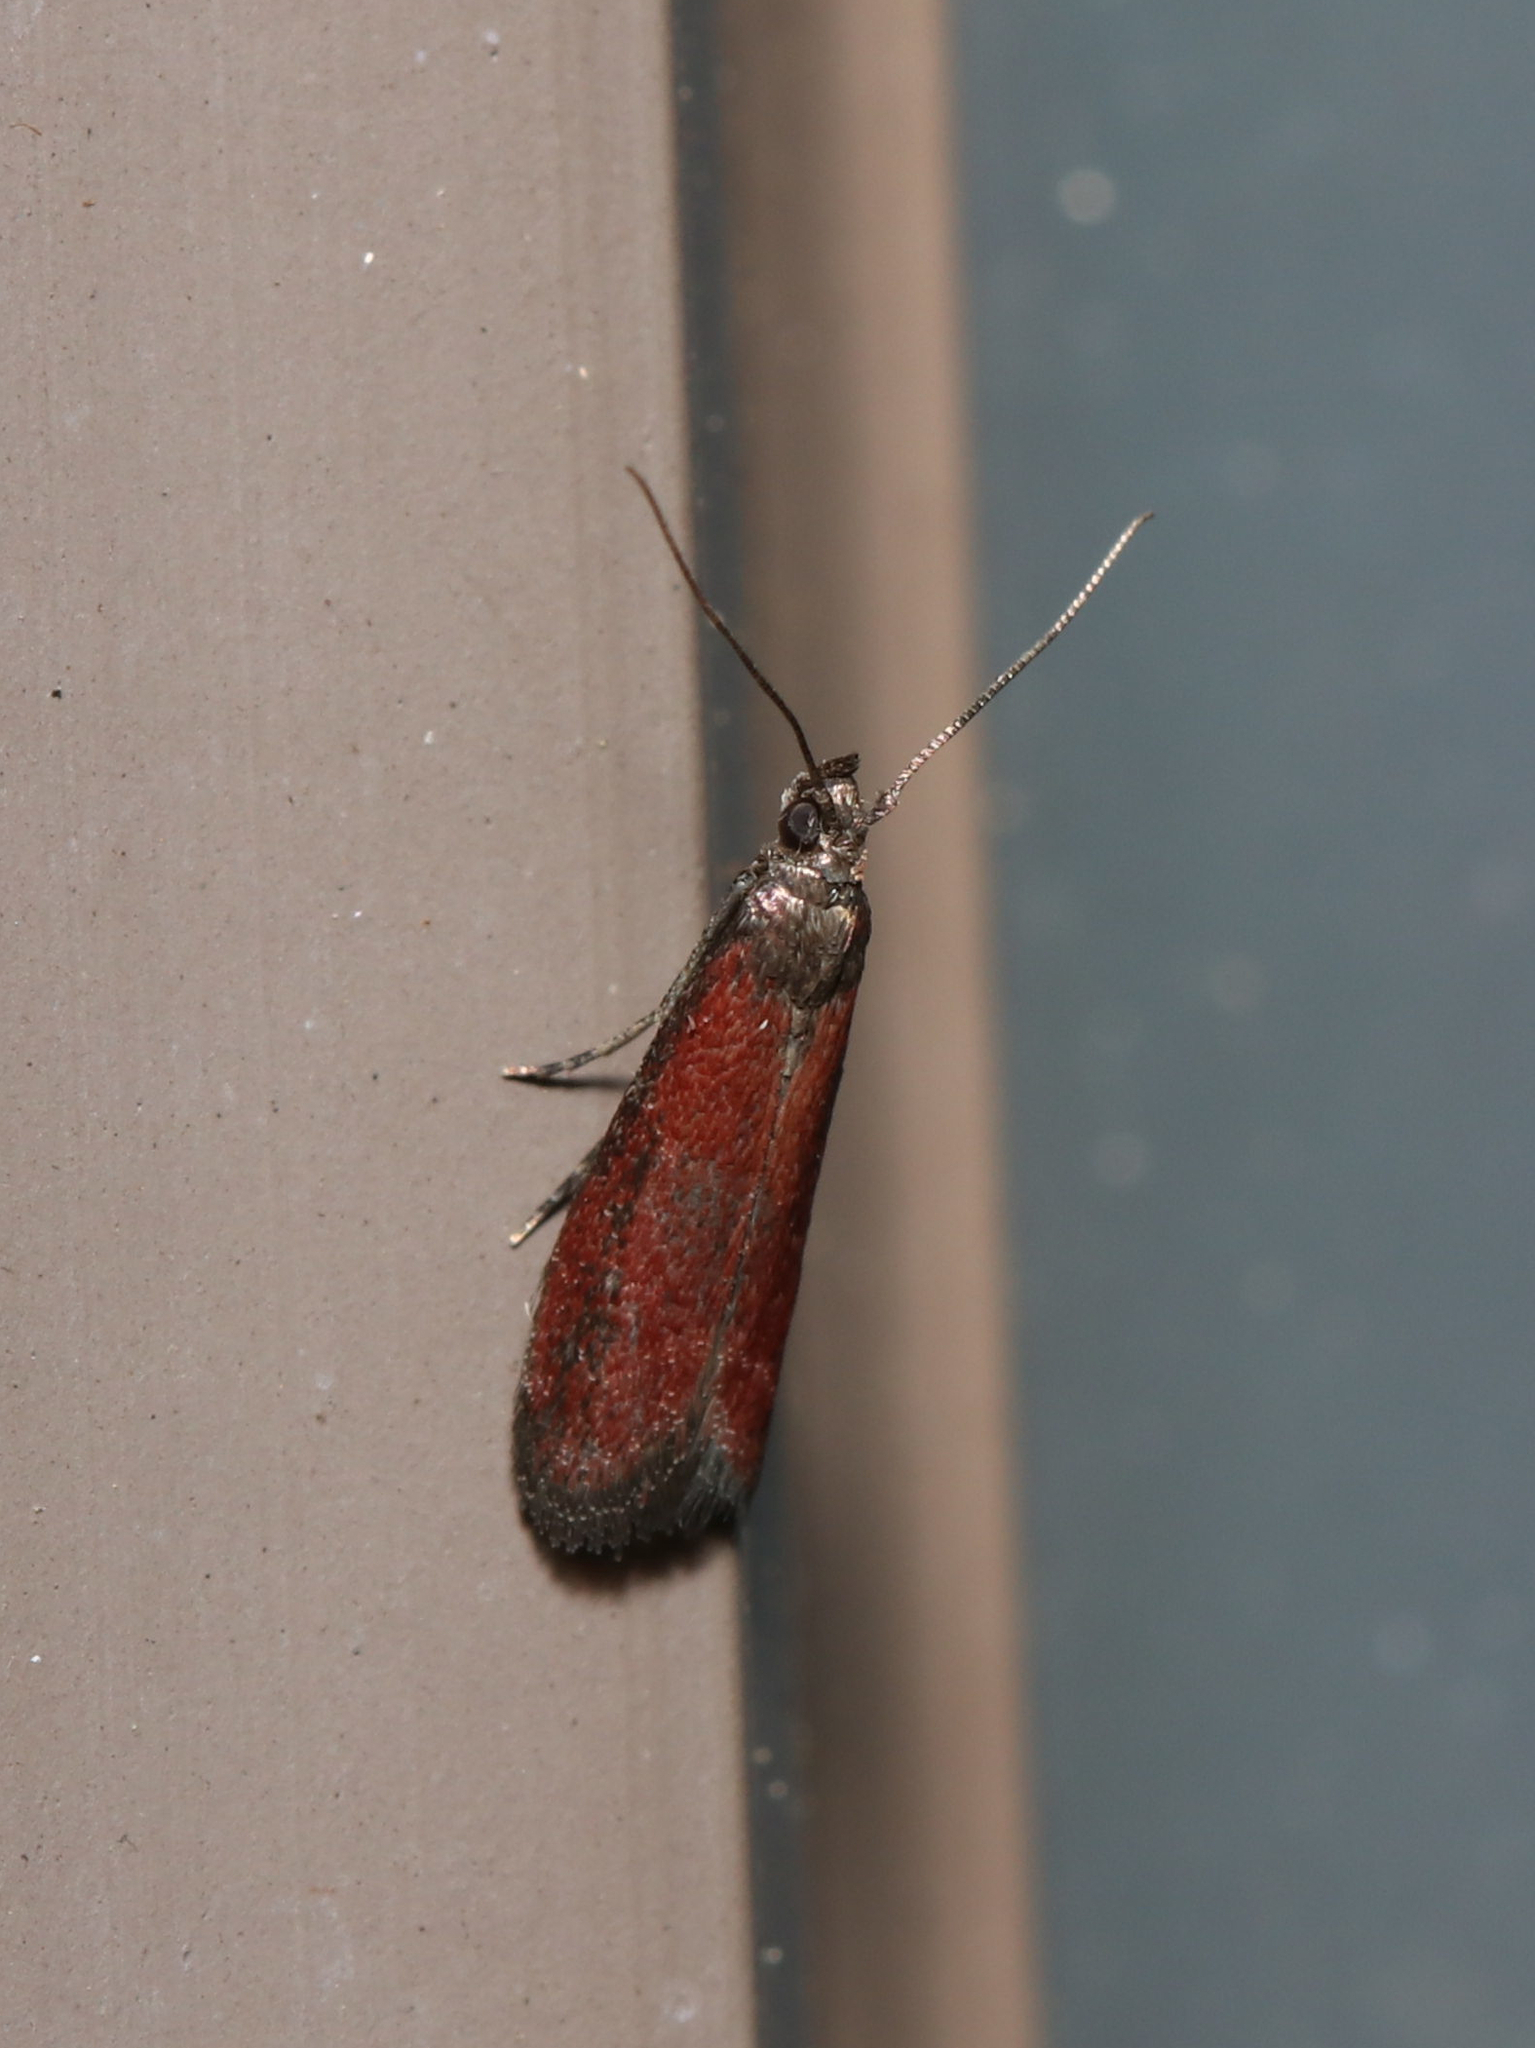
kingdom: Animalia
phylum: Arthropoda
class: Insecta
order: Lepidoptera
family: Pyralidae
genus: Varneria
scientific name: Varneria postremella
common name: Rusty varneria moth
